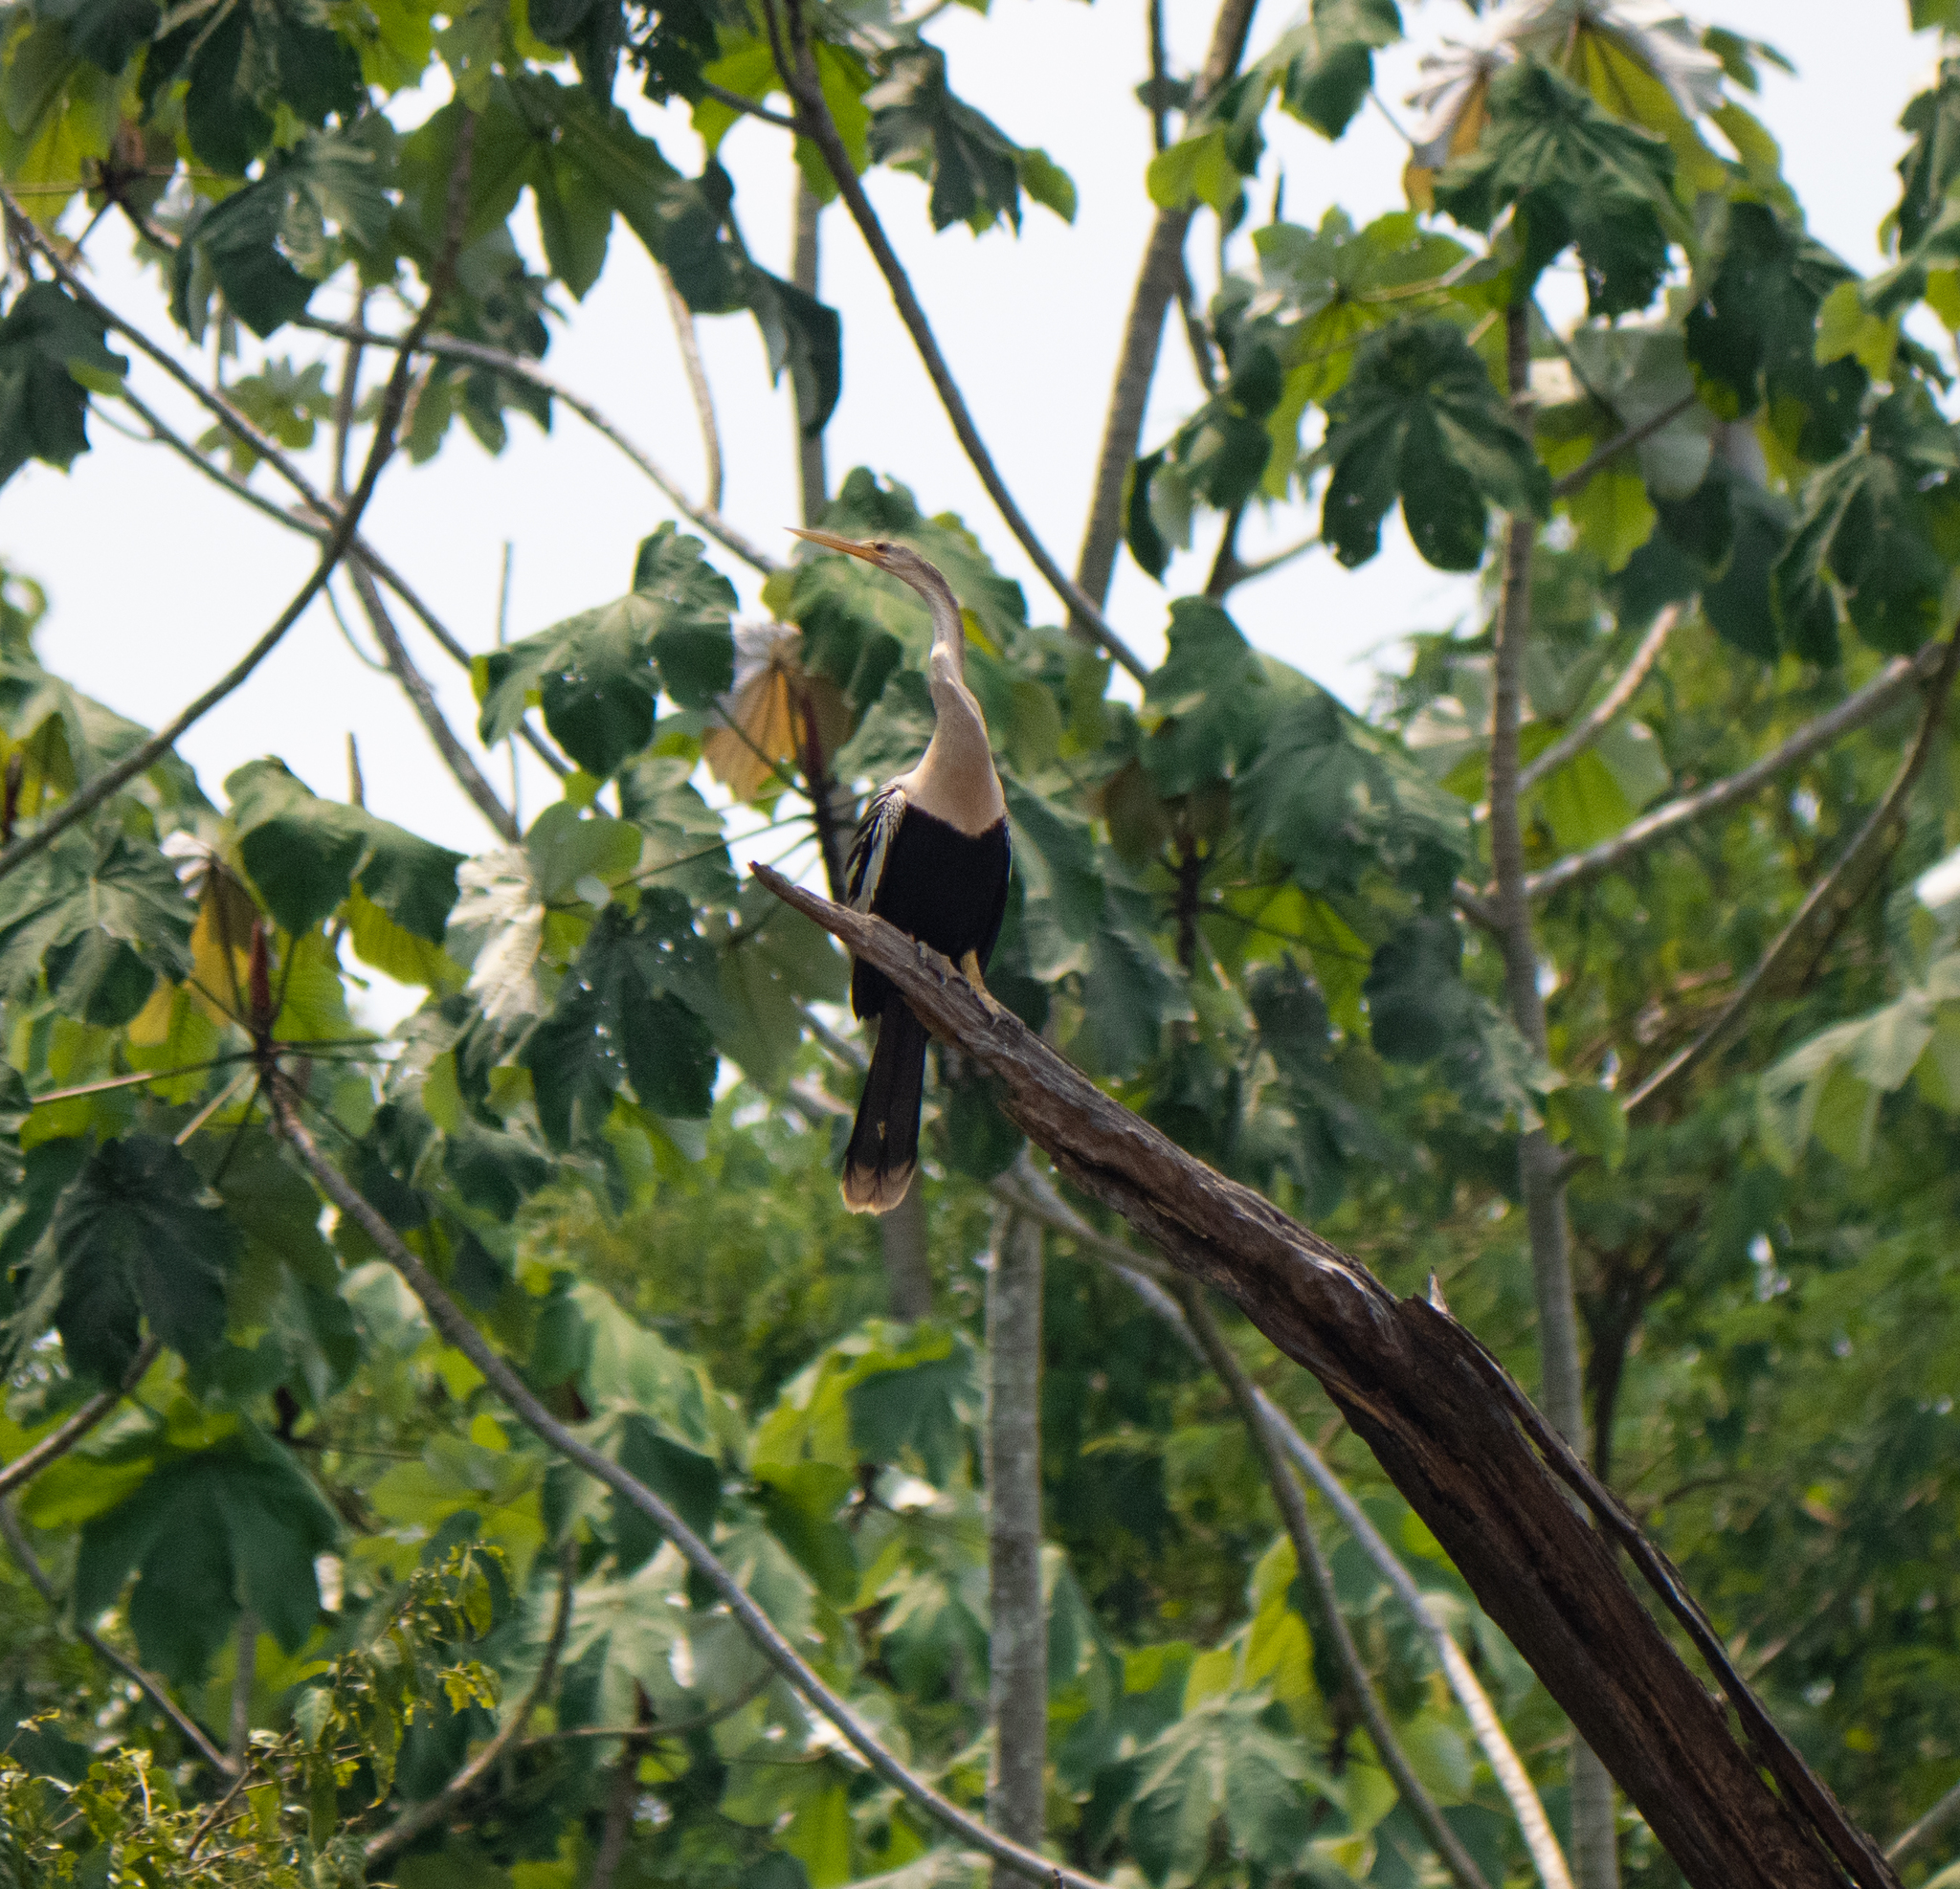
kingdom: Animalia
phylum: Chordata
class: Aves
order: Suliformes
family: Anhingidae
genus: Anhinga
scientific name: Anhinga anhinga
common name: Anhinga
